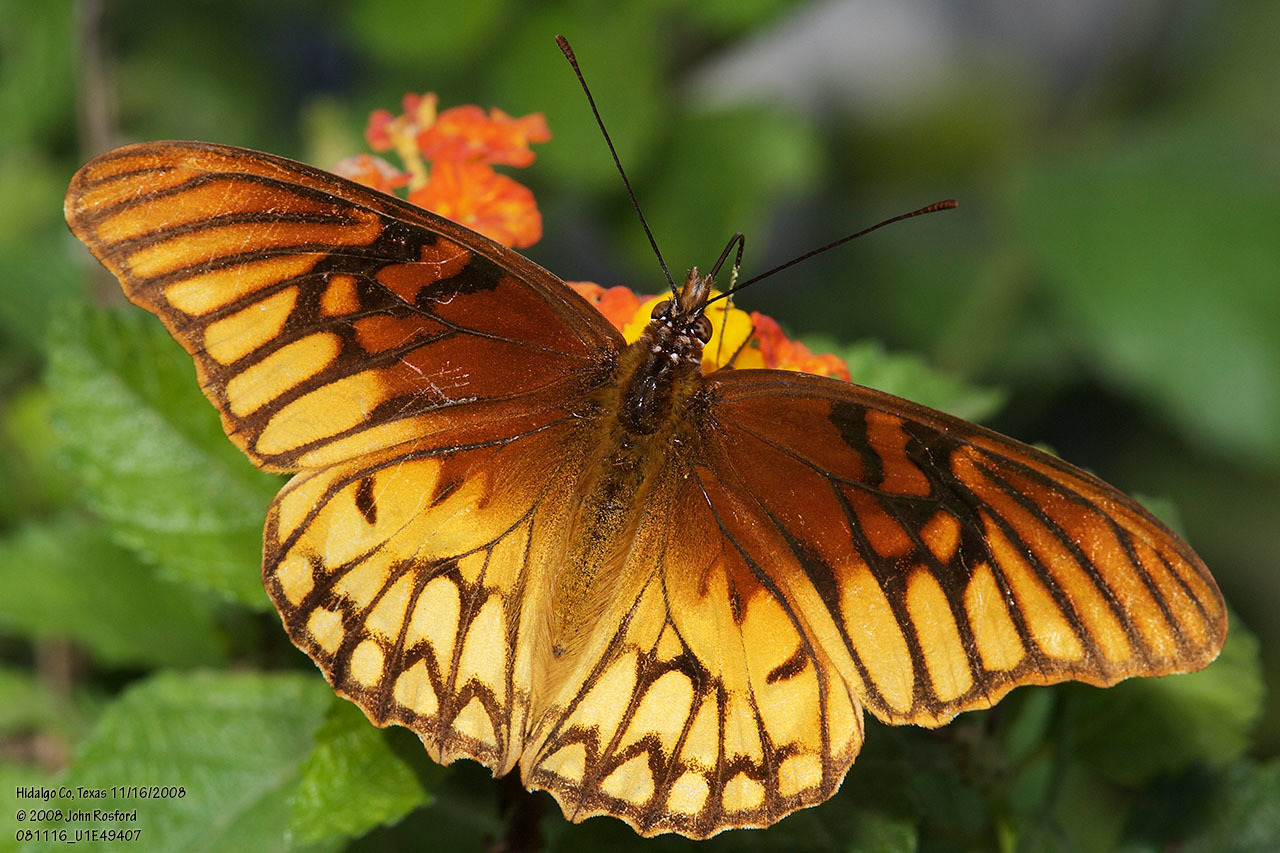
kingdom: Animalia
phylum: Arthropoda
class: Insecta
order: Lepidoptera
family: Nymphalidae
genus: Dione
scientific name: Dione moneta
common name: Mexican silverspot
